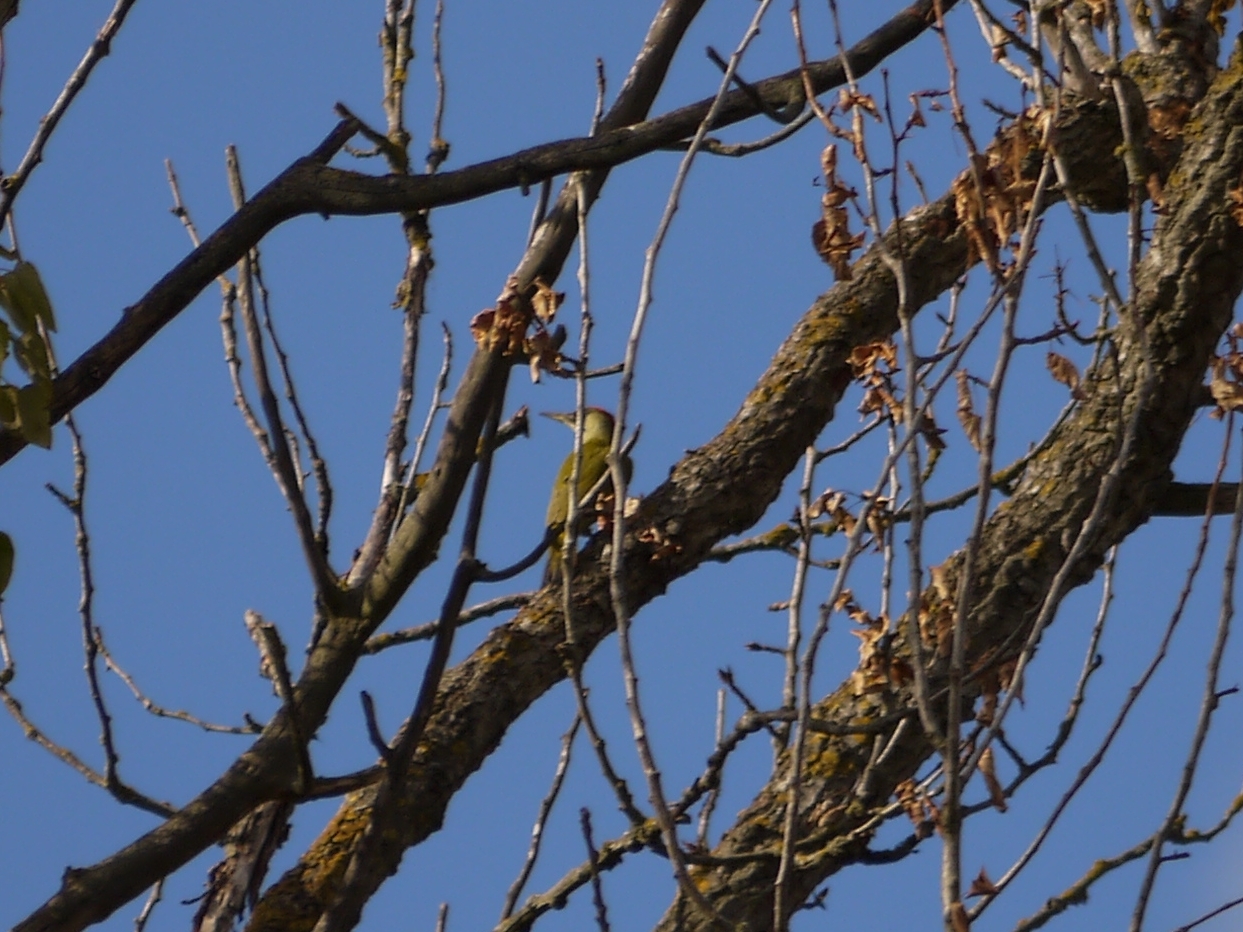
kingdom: Animalia
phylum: Chordata
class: Aves
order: Piciformes
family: Picidae
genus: Picus
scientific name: Picus viridis
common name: European green woodpecker
